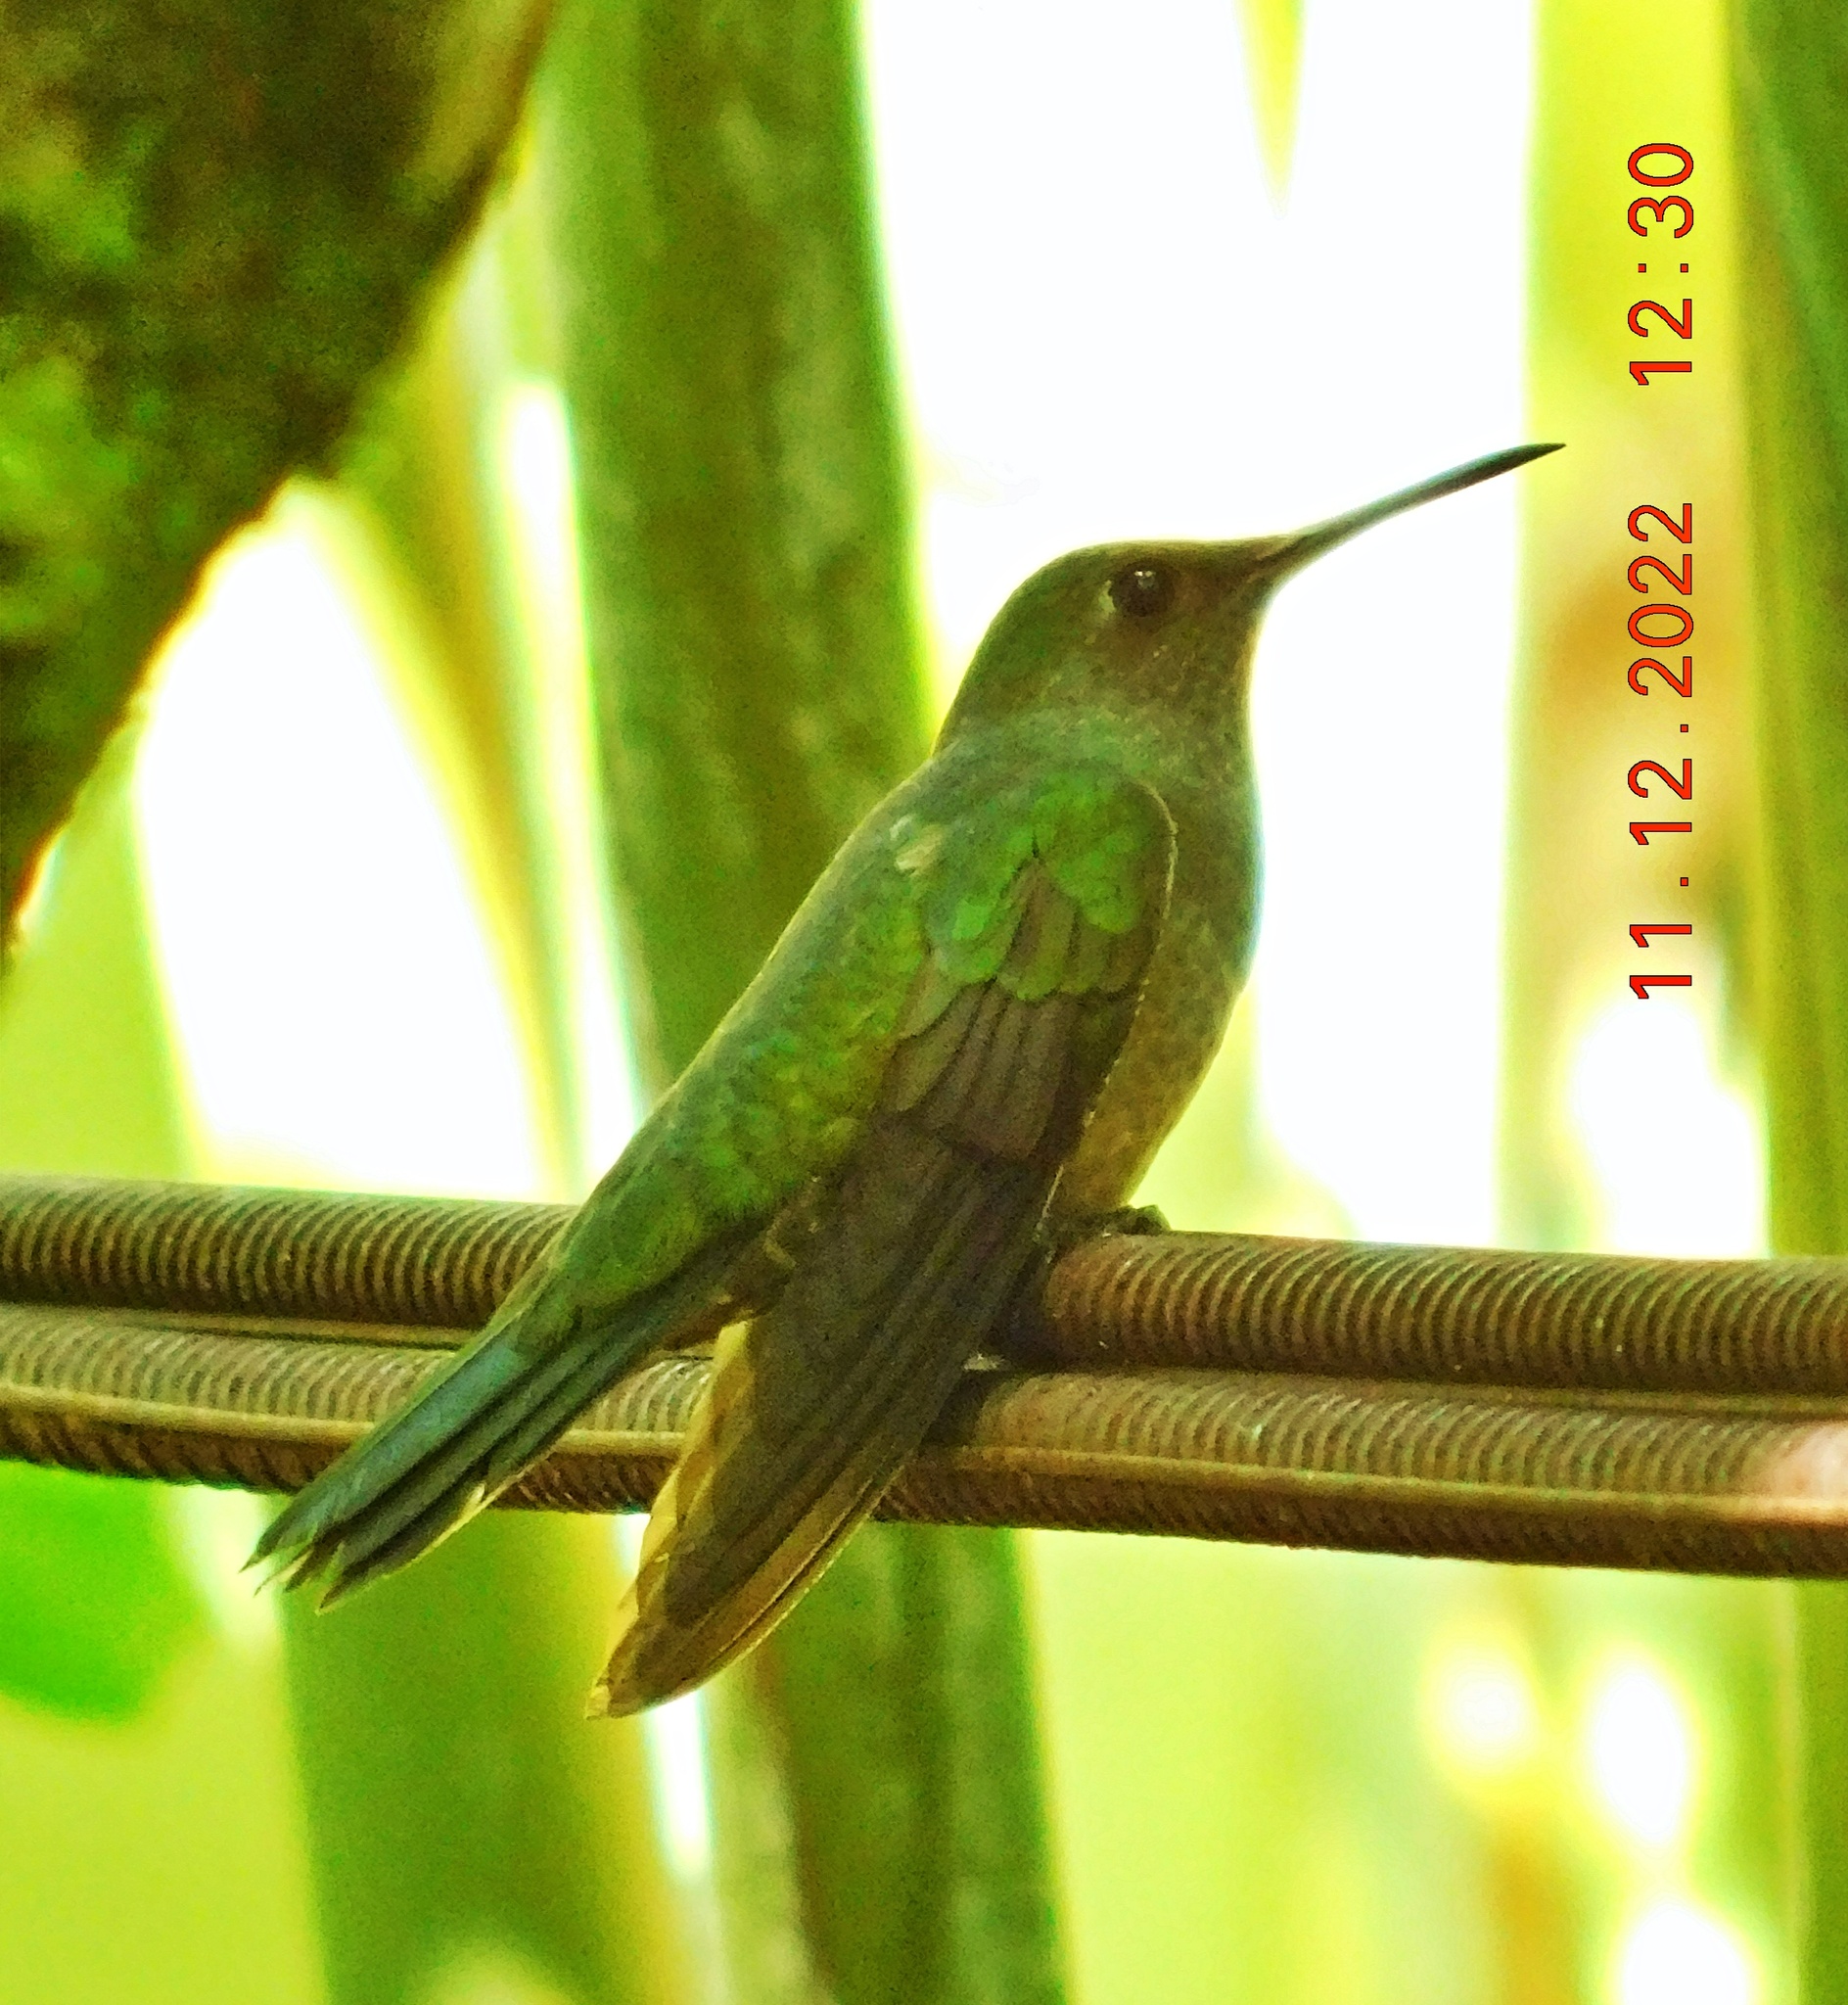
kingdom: Animalia
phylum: Chordata
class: Aves
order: Apodiformes
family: Trochilidae
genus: Phaeochroa
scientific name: Phaeochroa cuvierii
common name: Scaly-breasted hummingbird
